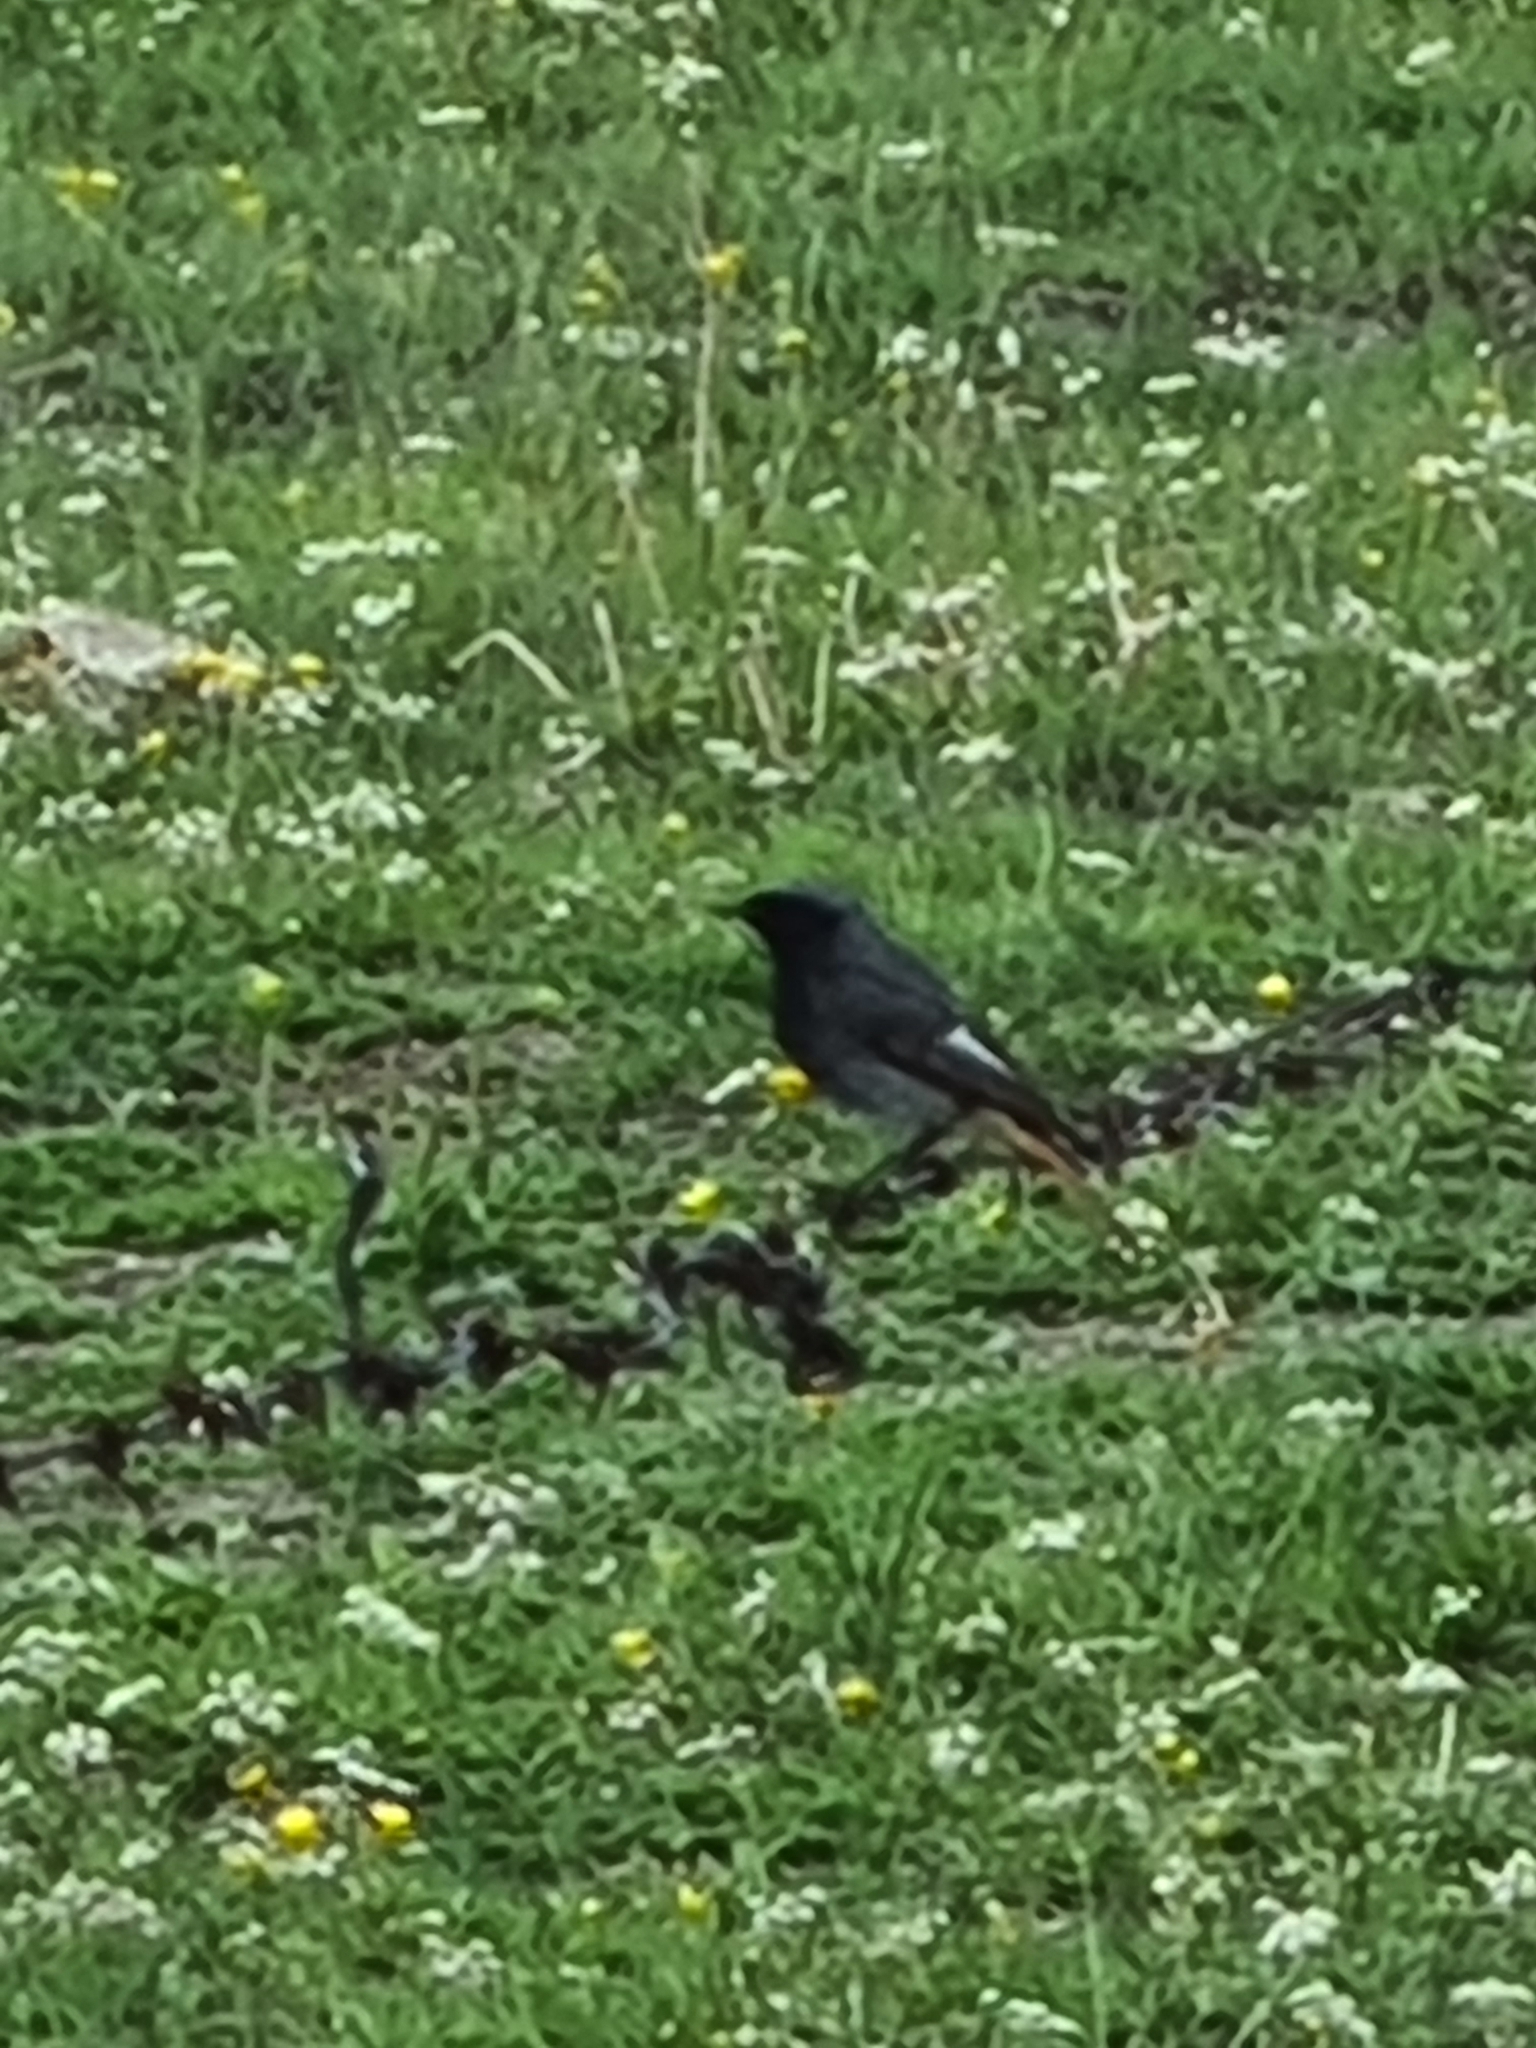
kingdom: Animalia
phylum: Chordata
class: Aves
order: Passeriformes
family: Muscicapidae
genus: Phoenicurus
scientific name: Phoenicurus ochruros
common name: Black redstart
